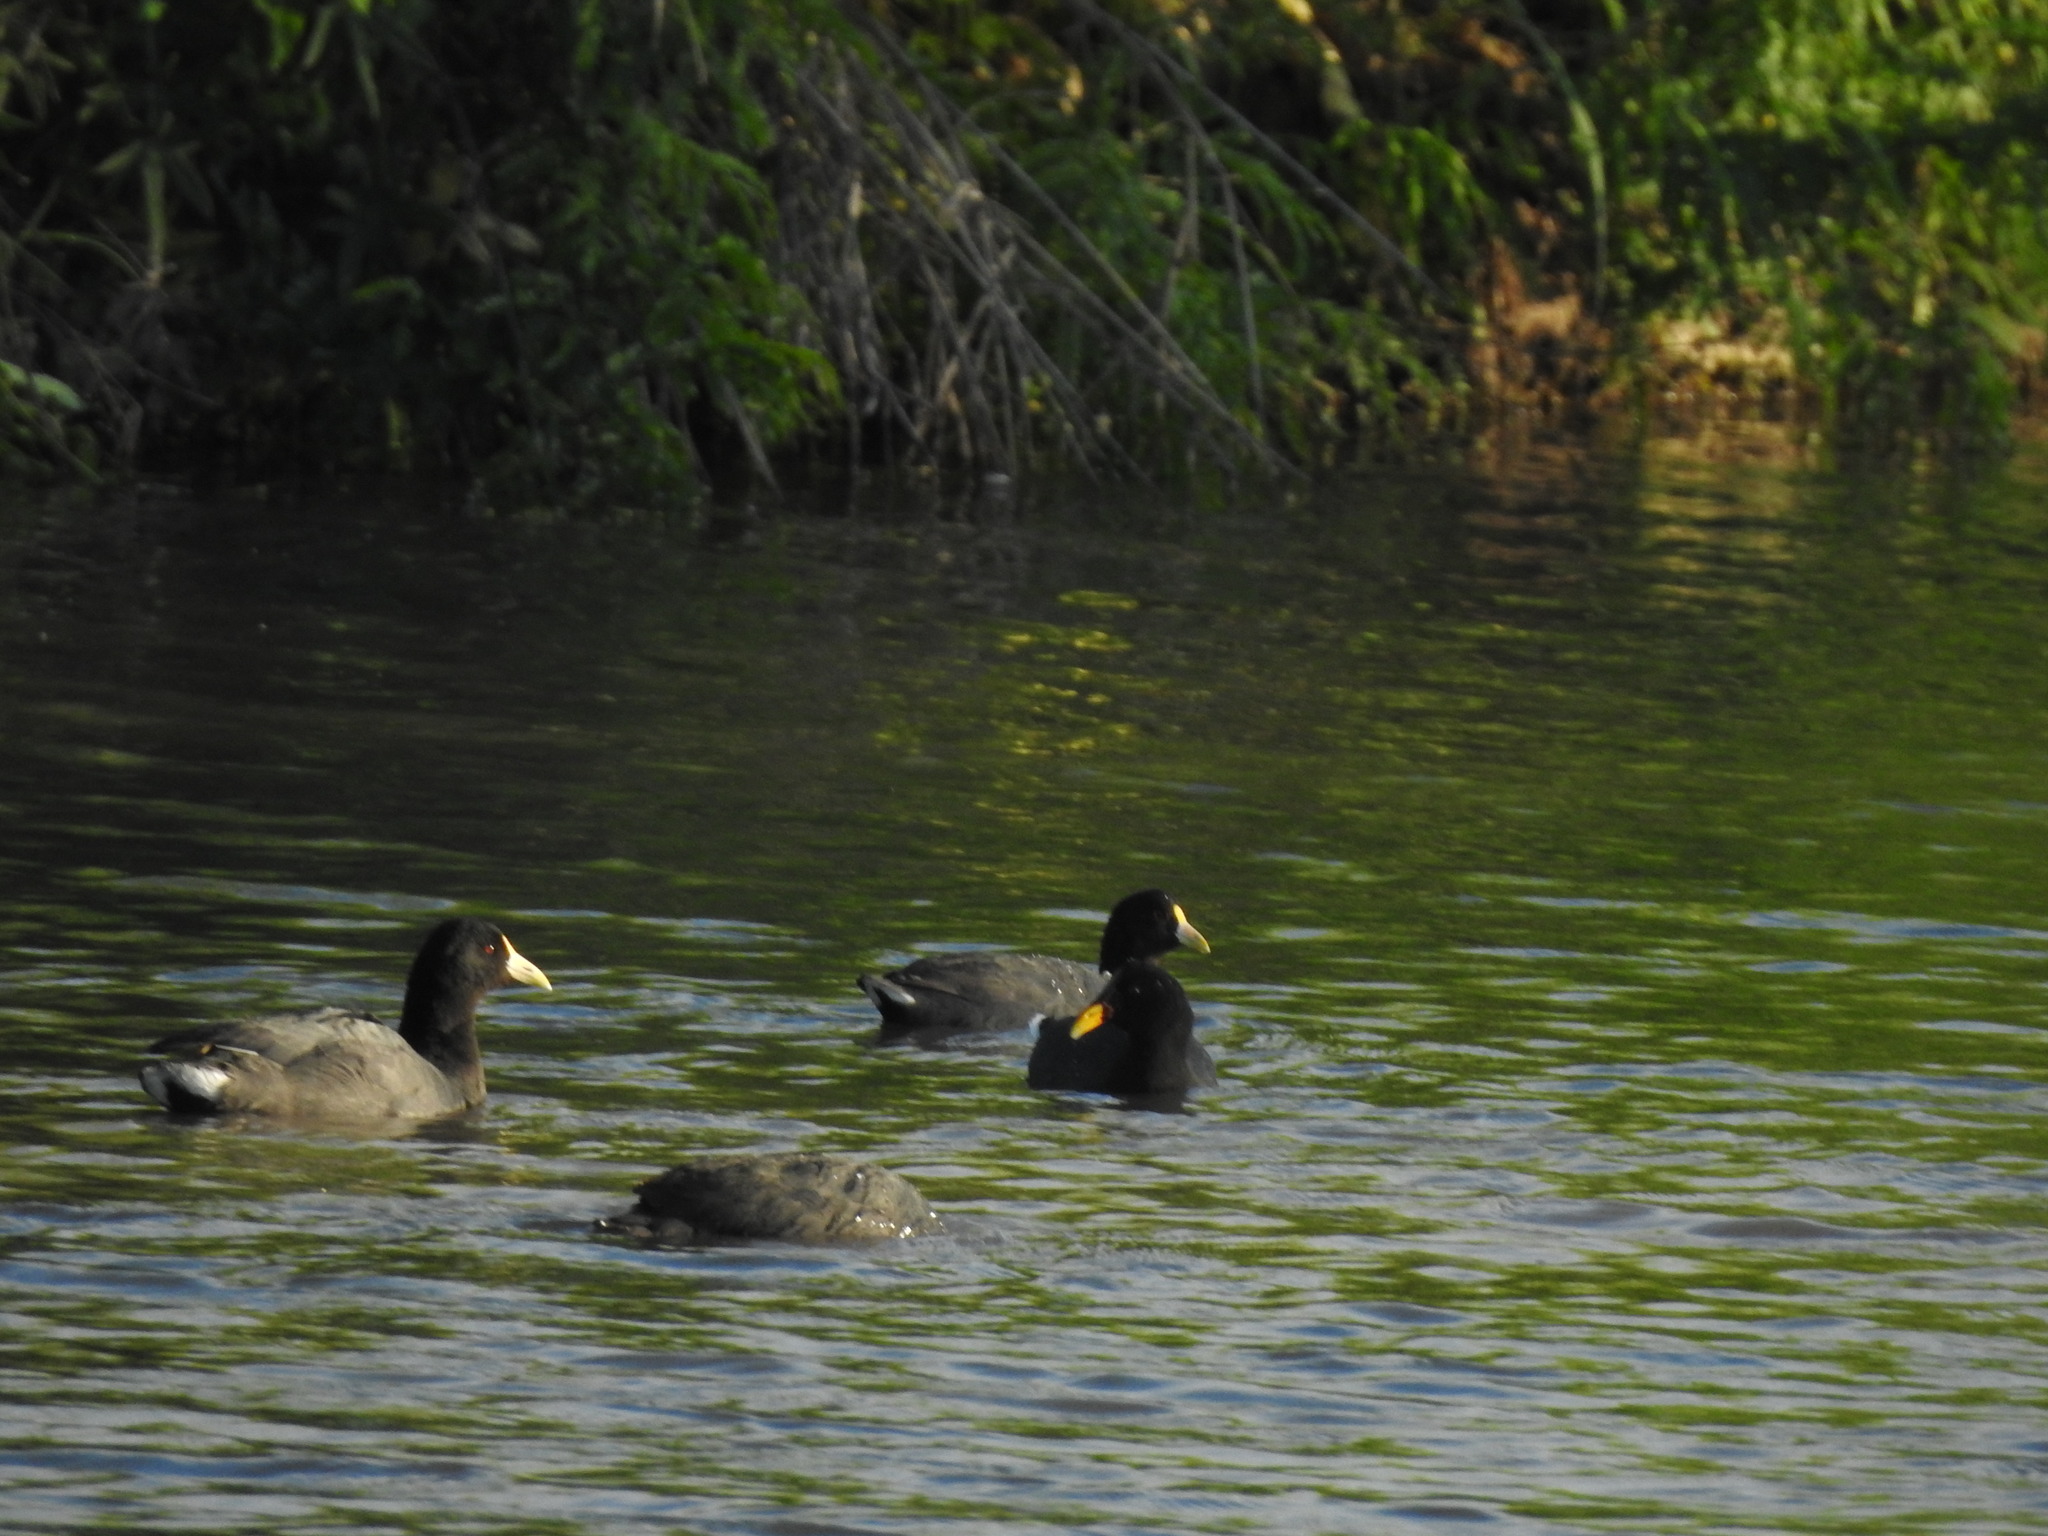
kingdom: Animalia
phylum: Chordata
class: Aves
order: Gruiformes
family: Rallidae
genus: Fulica
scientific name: Fulica leucoptera
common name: White-winged coot
